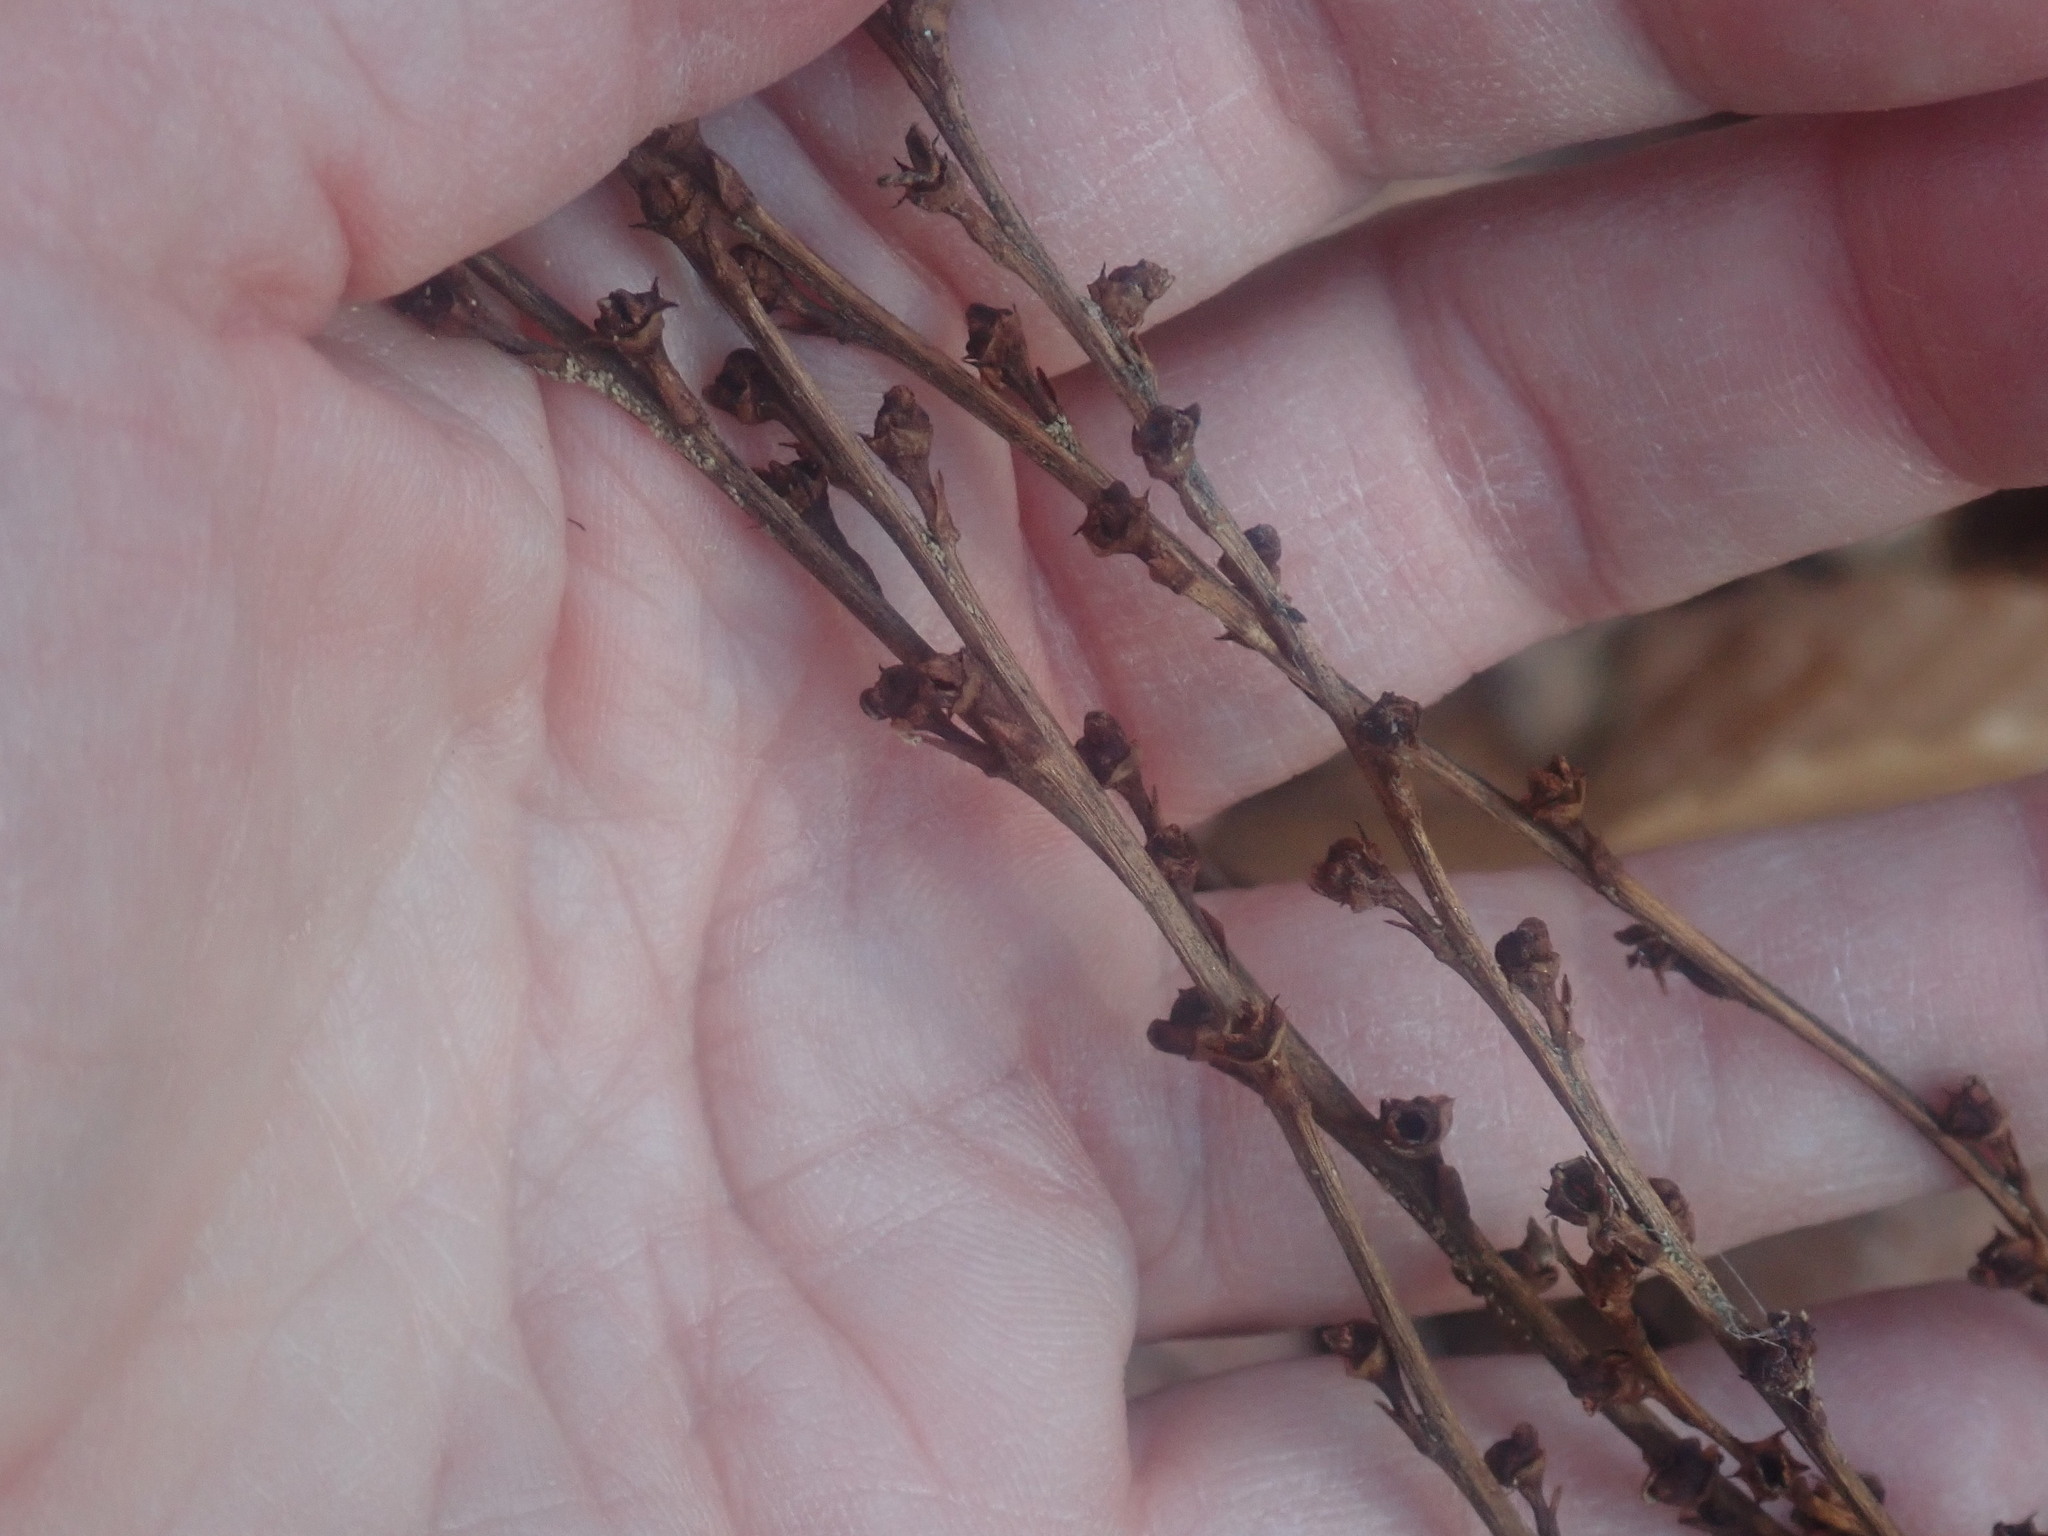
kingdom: Plantae
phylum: Tracheophyta
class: Magnoliopsida
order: Lamiales
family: Orobanchaceae
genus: Epifagus
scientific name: Epifagus virginiana
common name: Beechdrops
